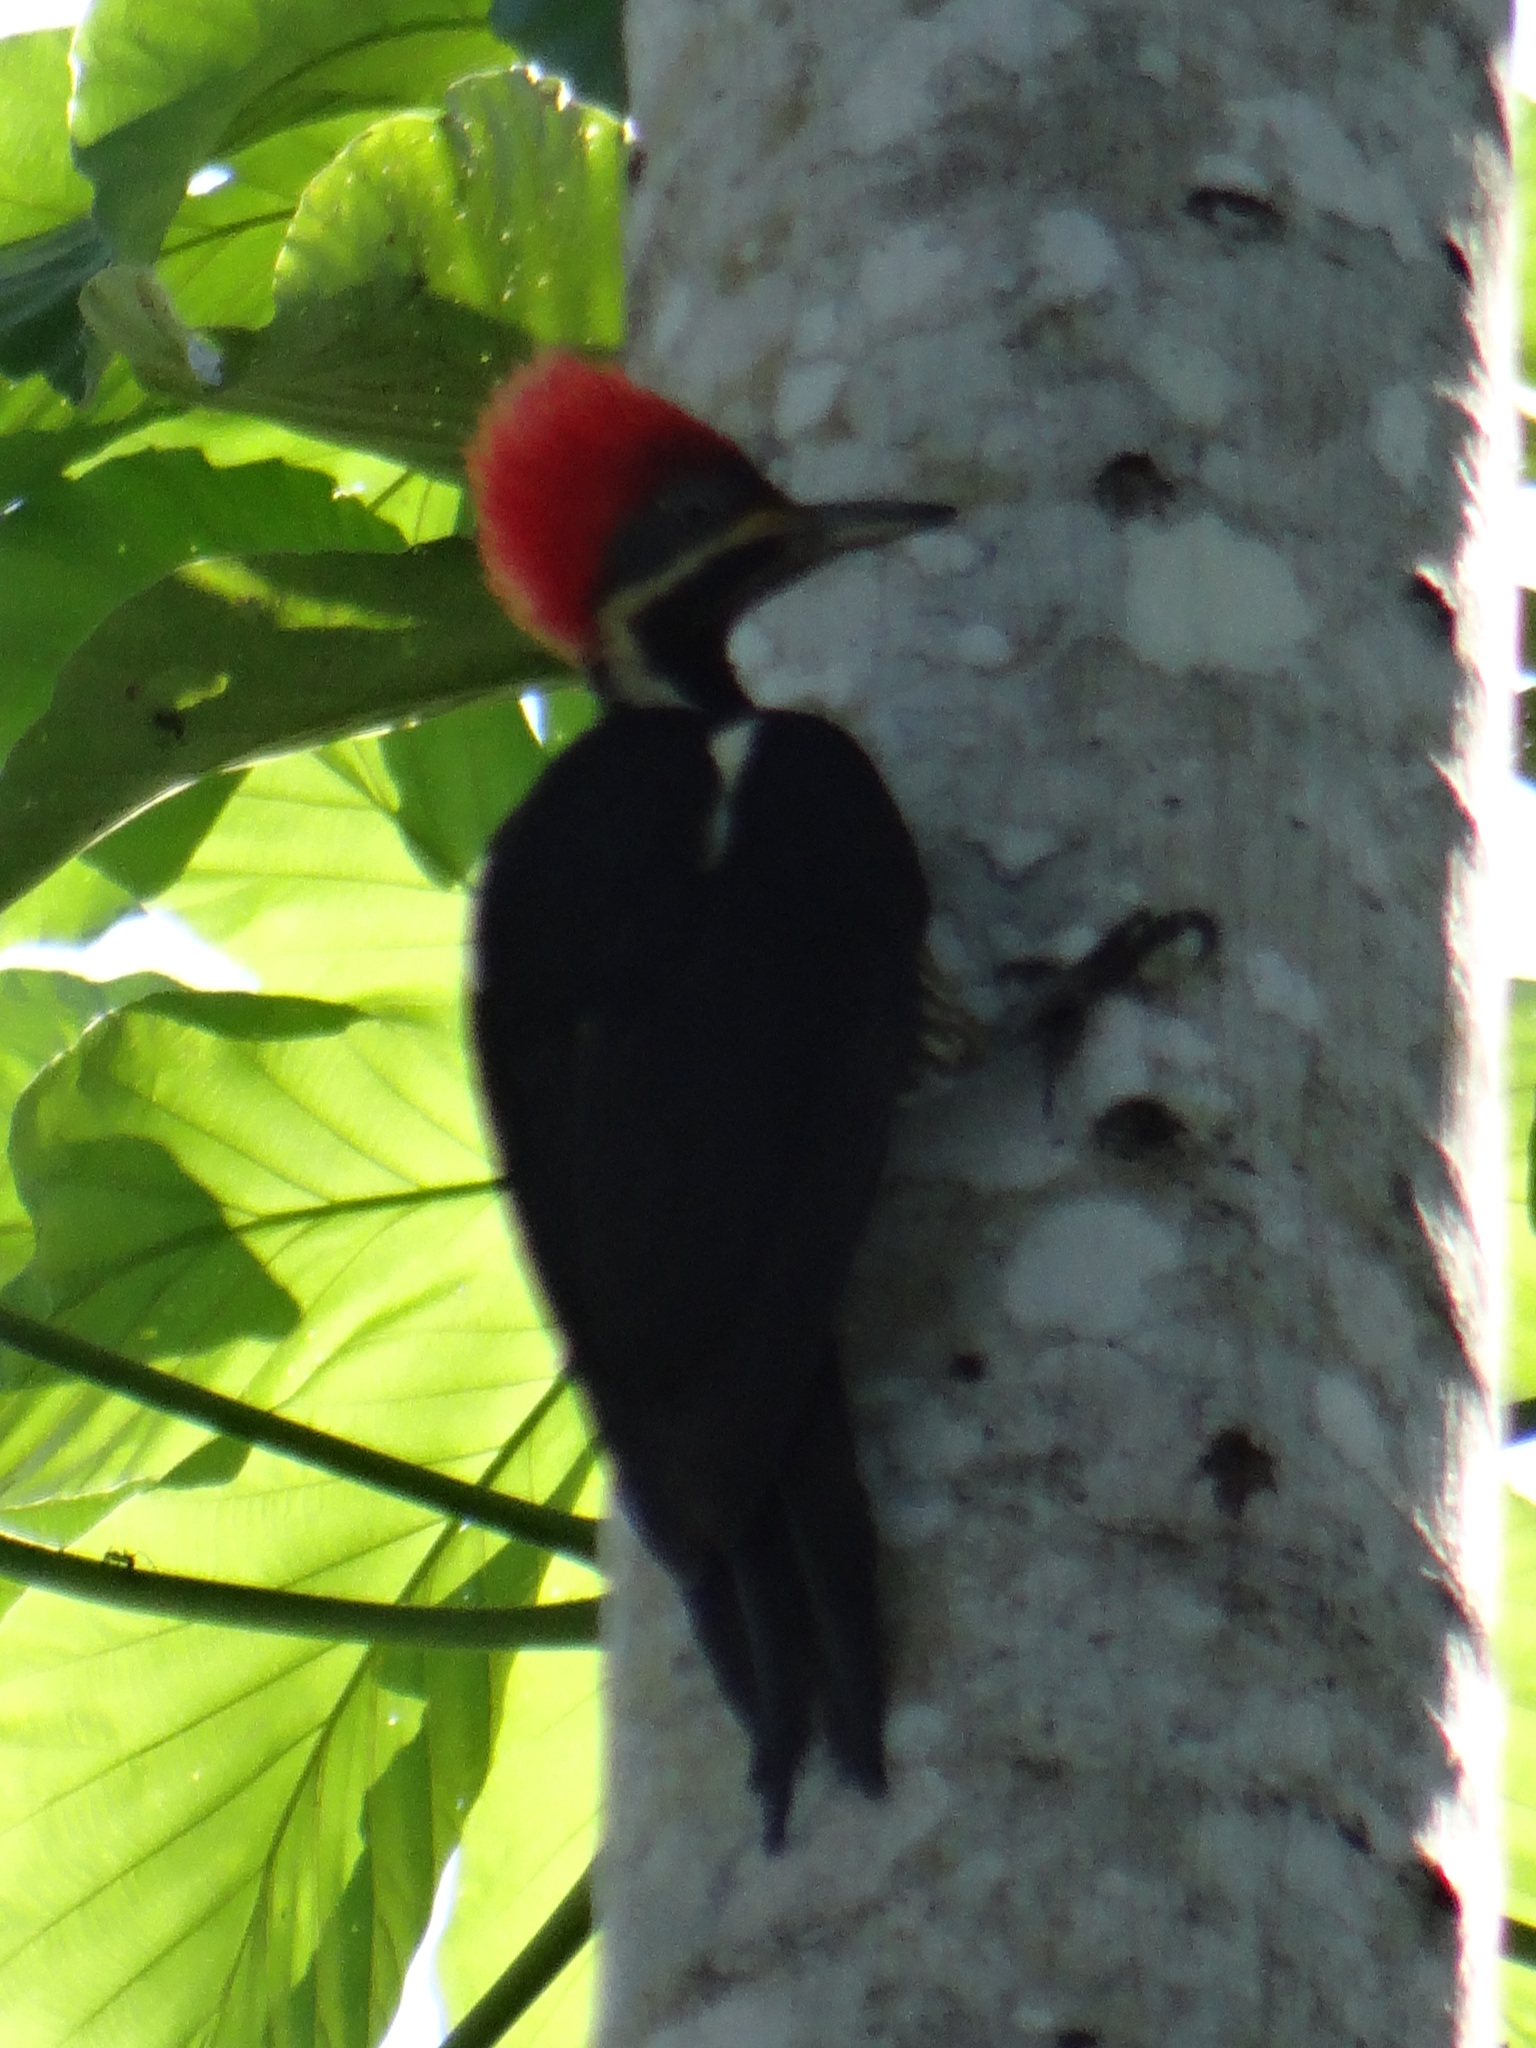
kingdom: Animalia
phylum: Chordata
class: Aves
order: Piciformes
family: Picidae
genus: Dryocopus
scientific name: Dryocopus lineatus
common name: Lineated woodpecker
